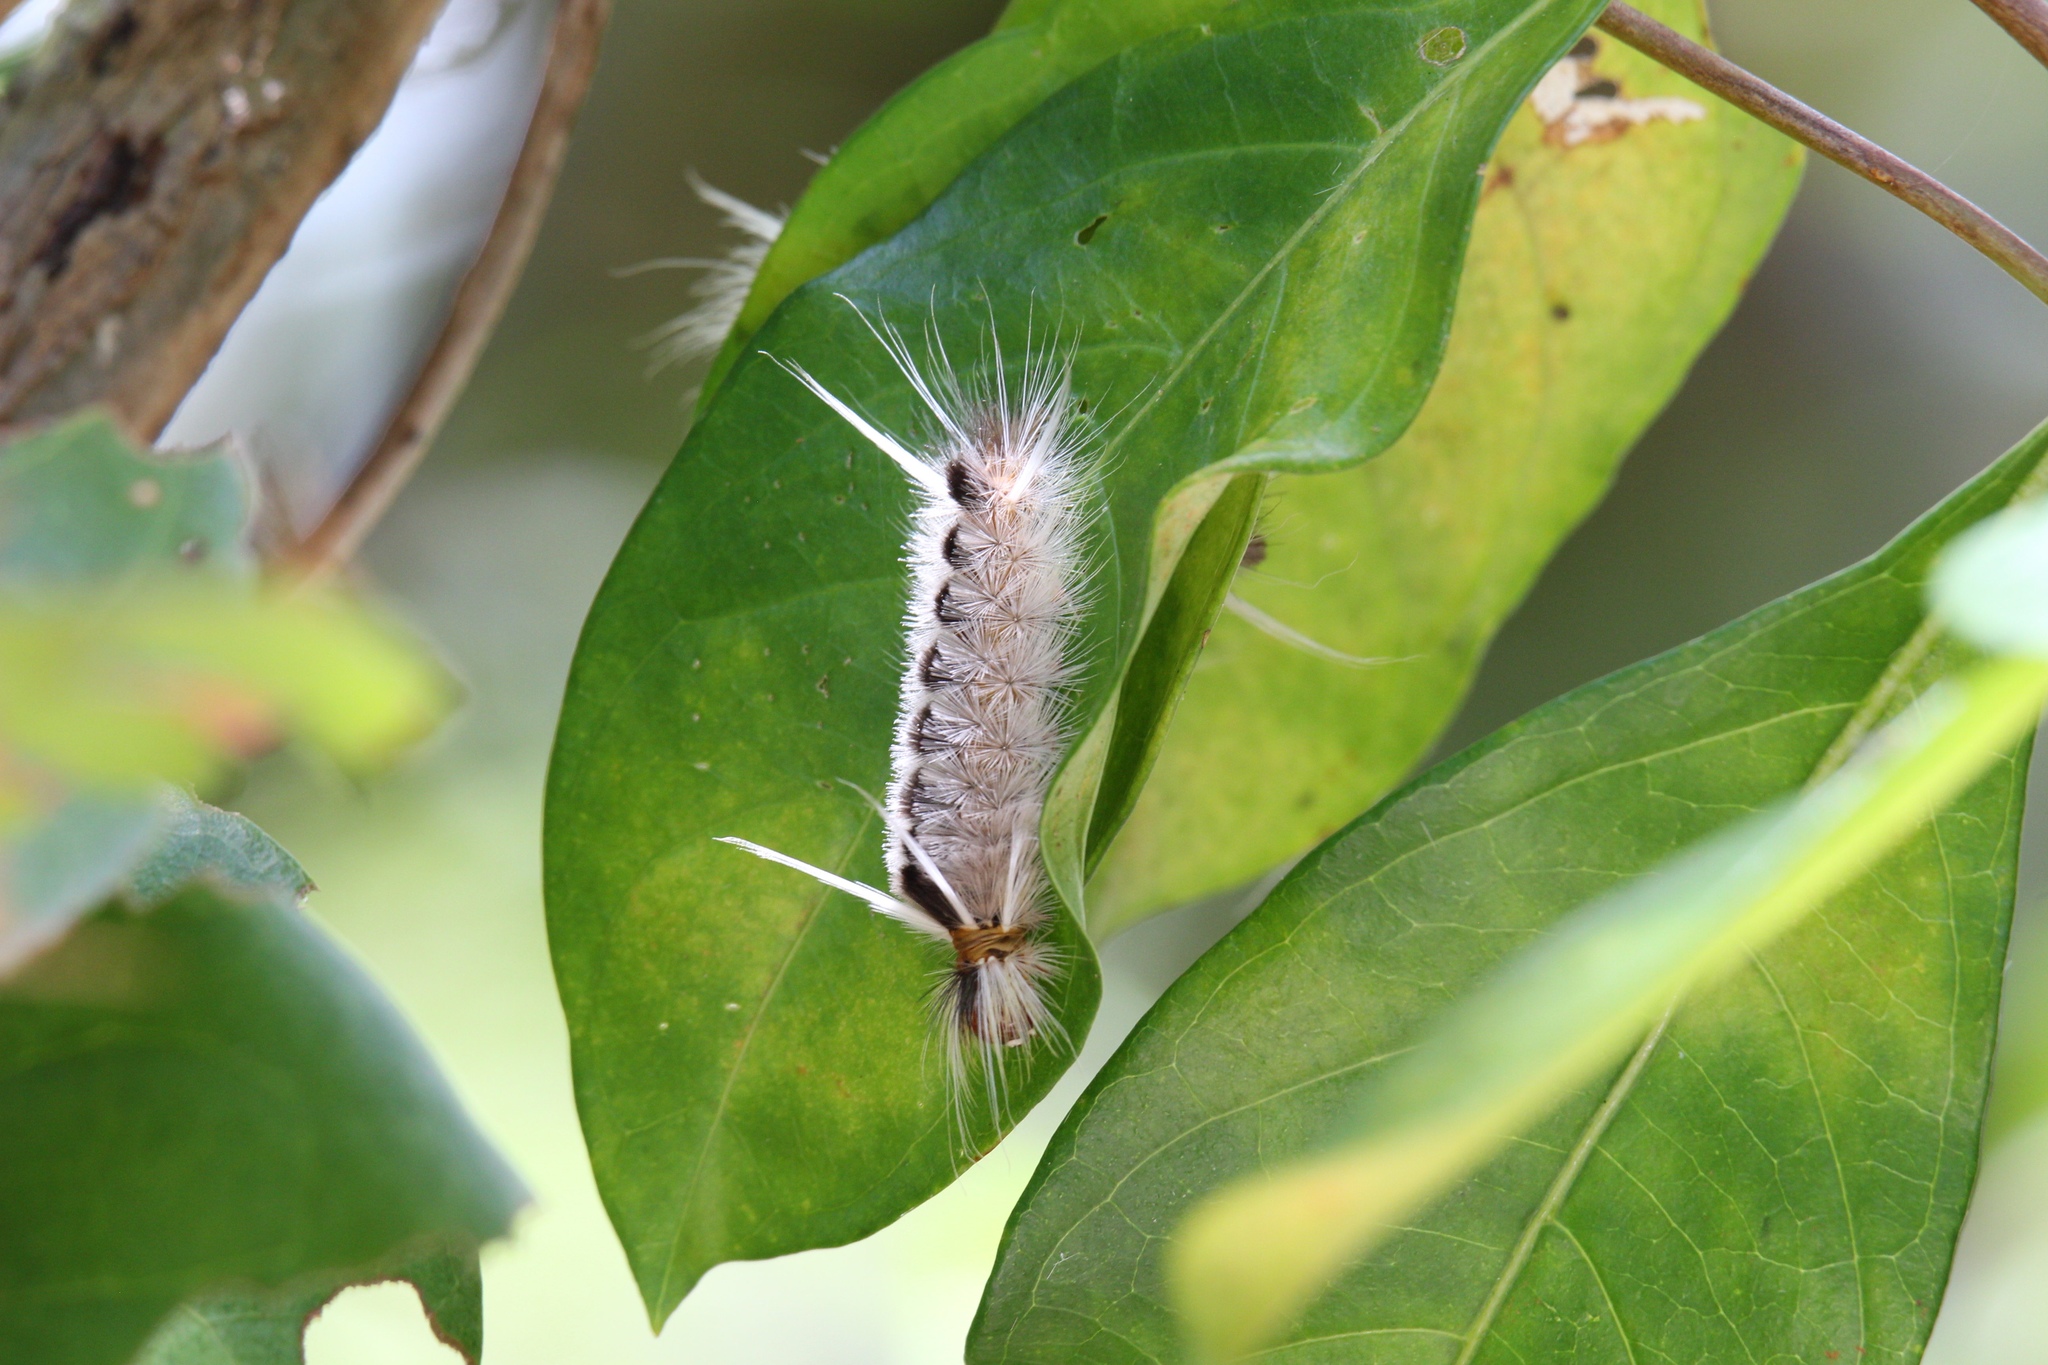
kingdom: Animalia
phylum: Arthropoda
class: Insecta
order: Lepidoptera
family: Erebidae
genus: Halysidota
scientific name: Halysidota cinctipes
